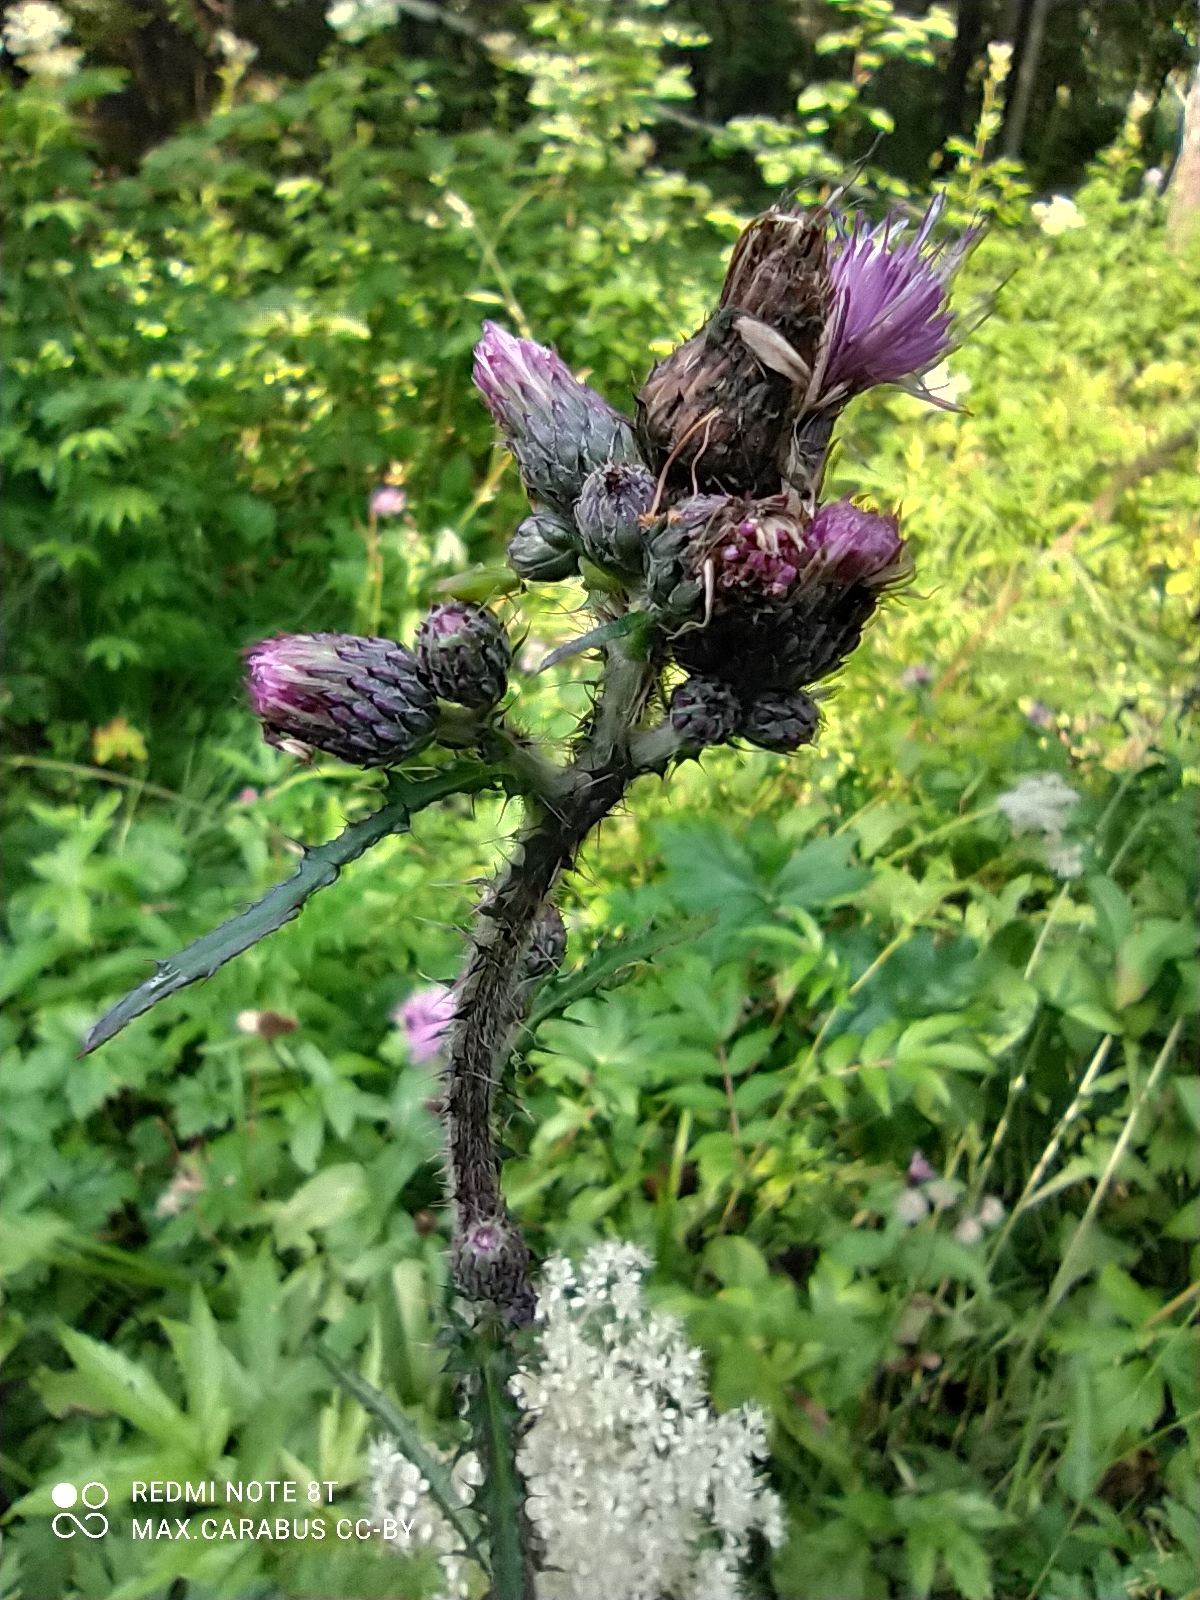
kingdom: Plantae
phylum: Tracheophyta
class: Magnoliopsida
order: Asterales
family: Asteraceae
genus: Cirsium
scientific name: Cirsium palustre
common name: Marsh thistle
